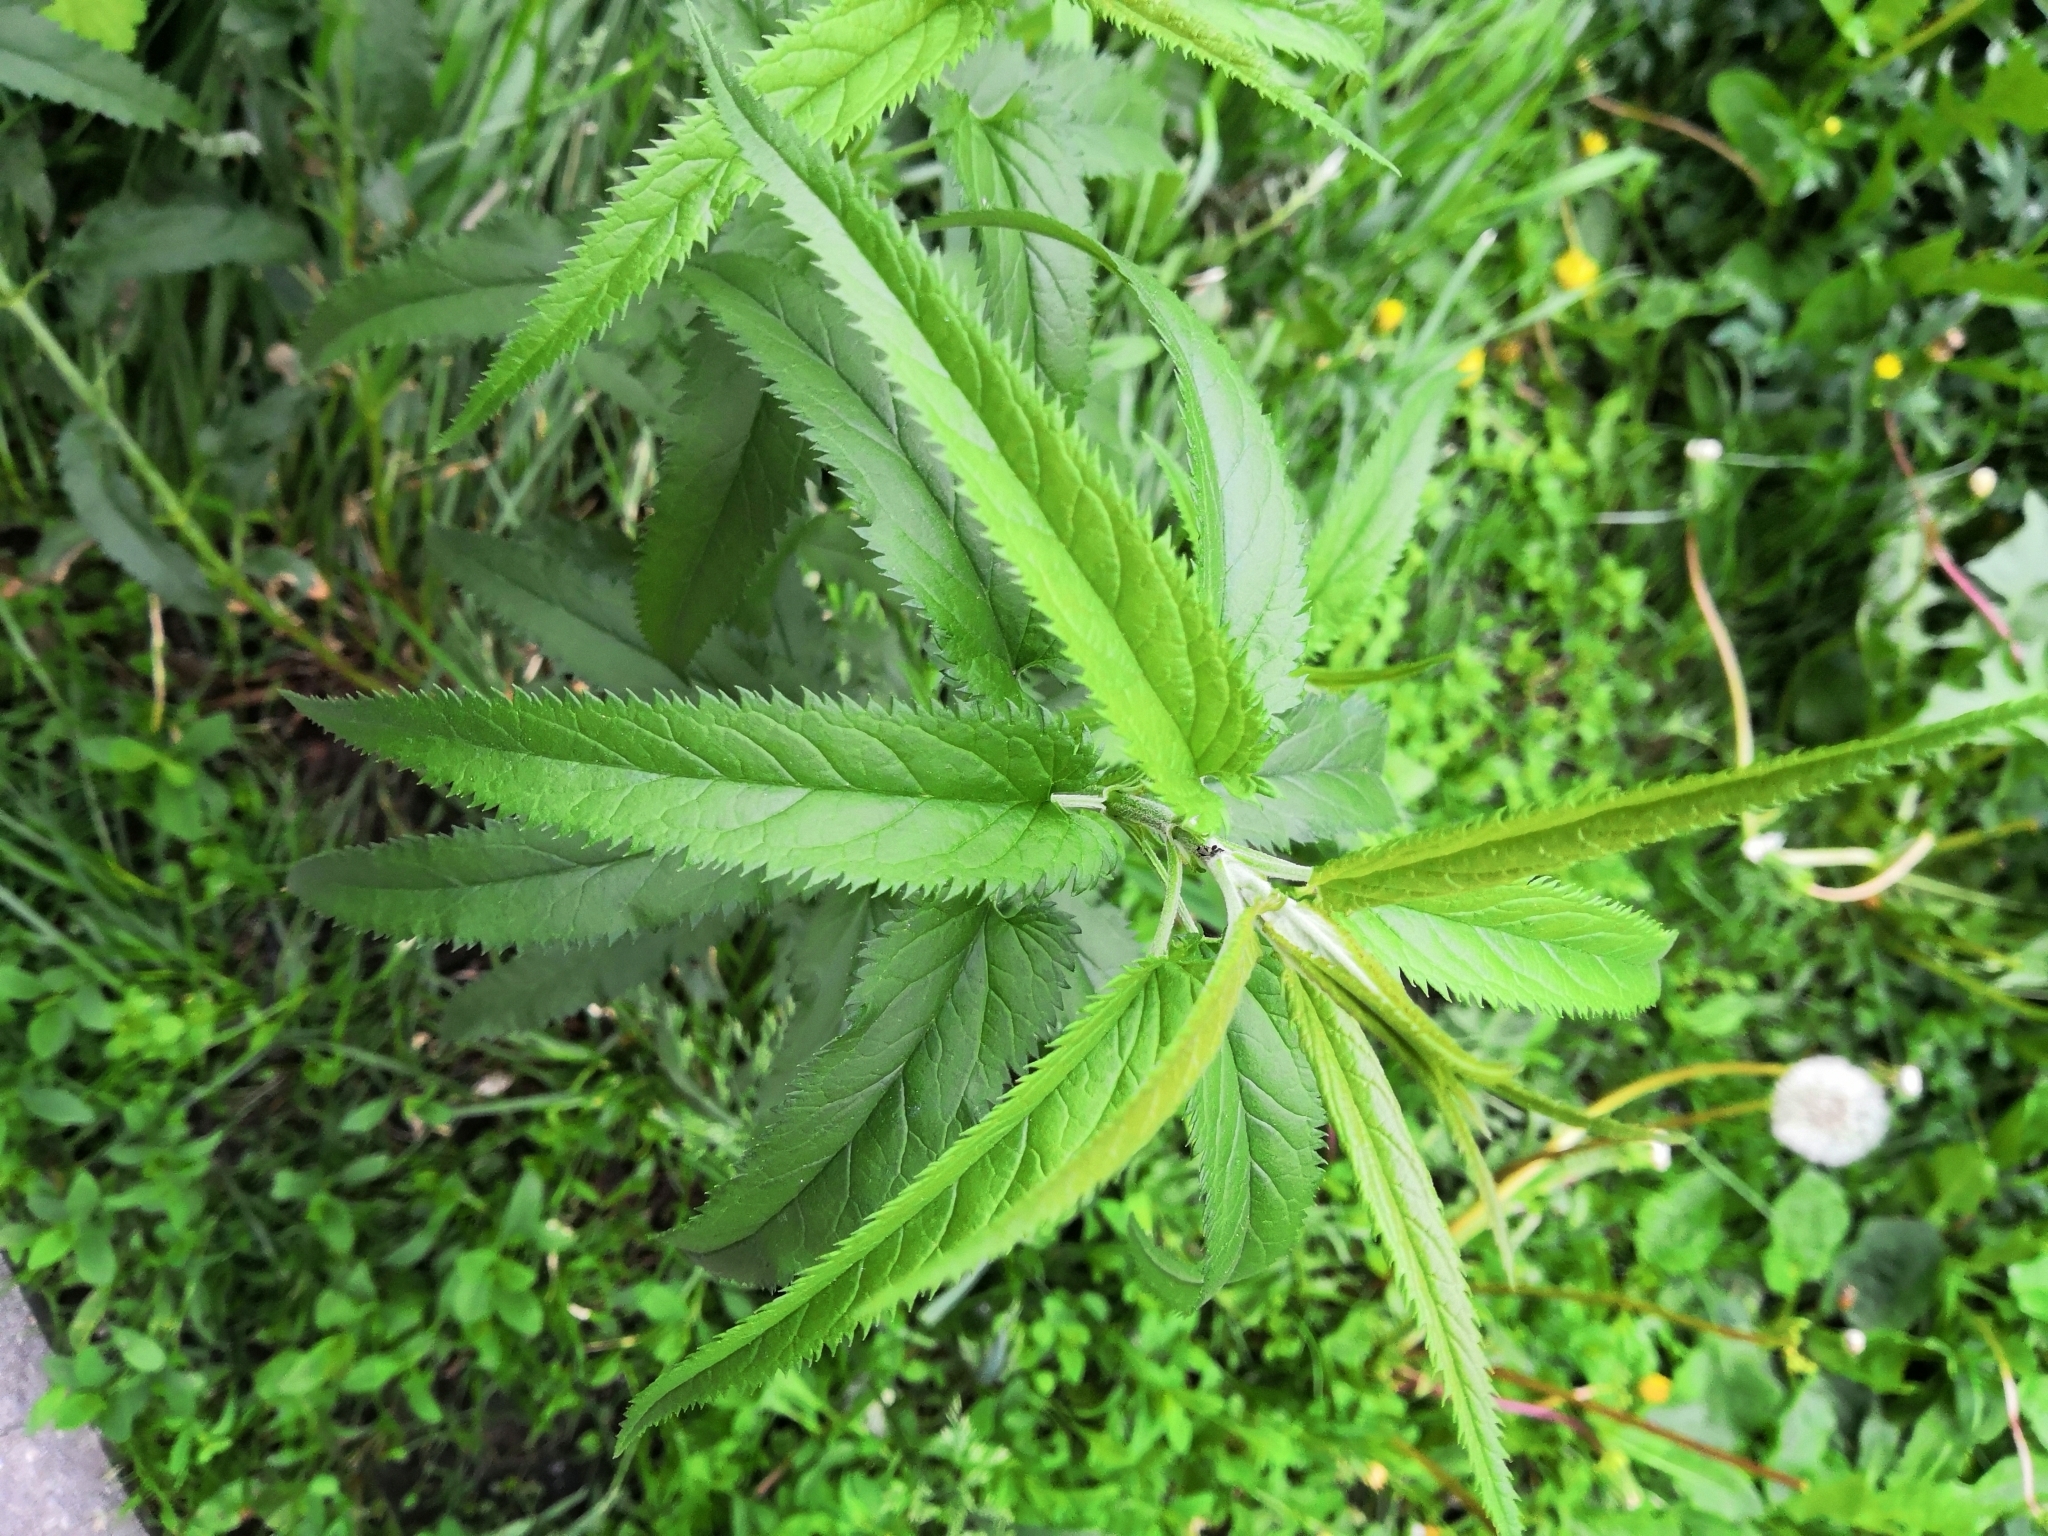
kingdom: Plantae
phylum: Tracheophyta
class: Magnoliopsida
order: Lamiales
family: Plantaginaceae
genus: Veronica
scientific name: Veronica longifolia
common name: Garden speedwell
